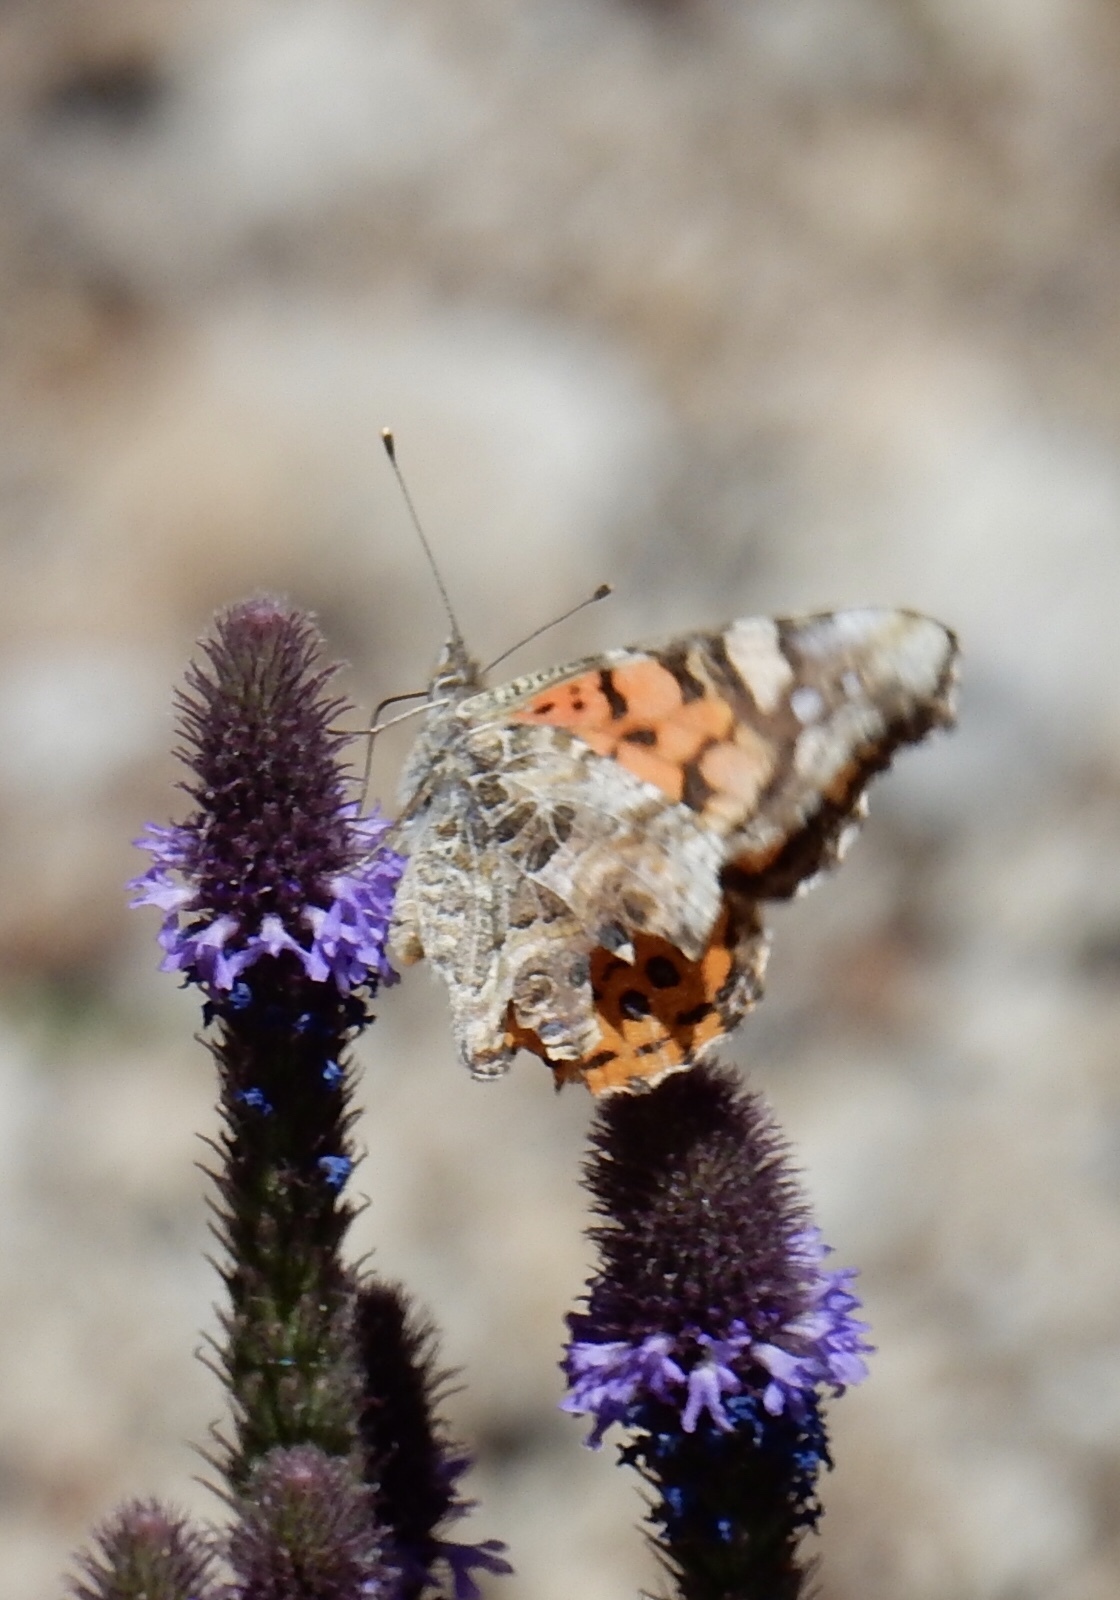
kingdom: Animalia
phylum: Arthropoda
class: Insecta
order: Lepidoptera
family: Nymphalidae
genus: Vanessa
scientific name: Vanessa annabella
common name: West coast lady
